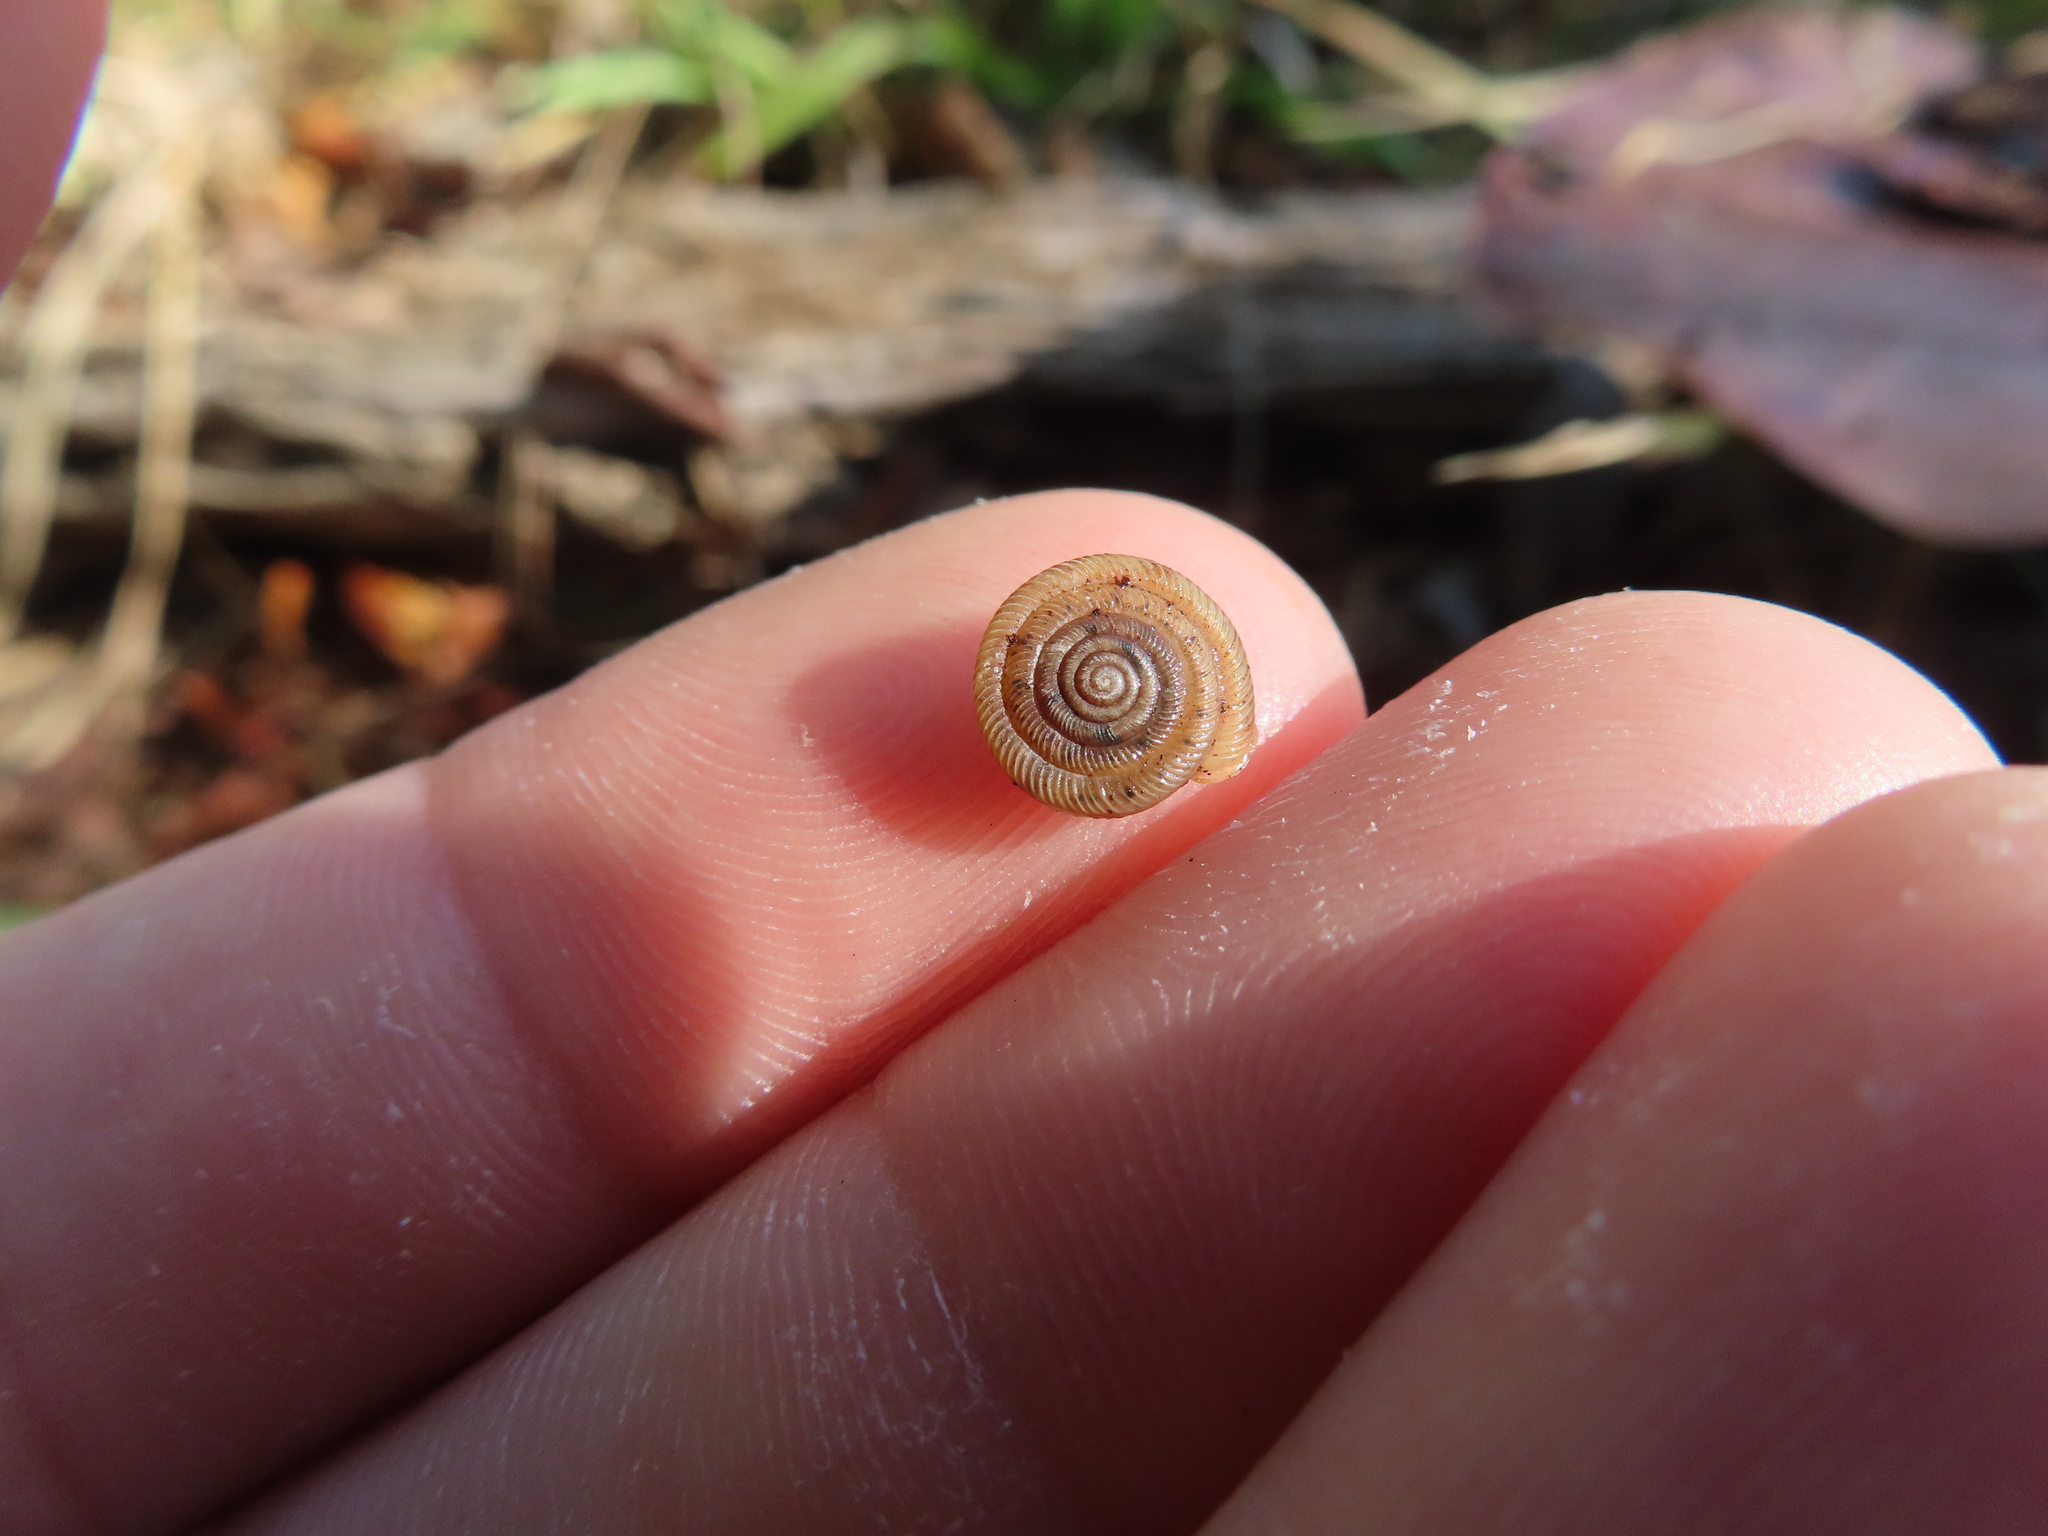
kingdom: Animalia
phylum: Mollusca
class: Gastropoda
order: Stylommatophora
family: Polygyridae
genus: Polygyra
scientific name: Polygyra cereolus
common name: Southern flatcone snail
